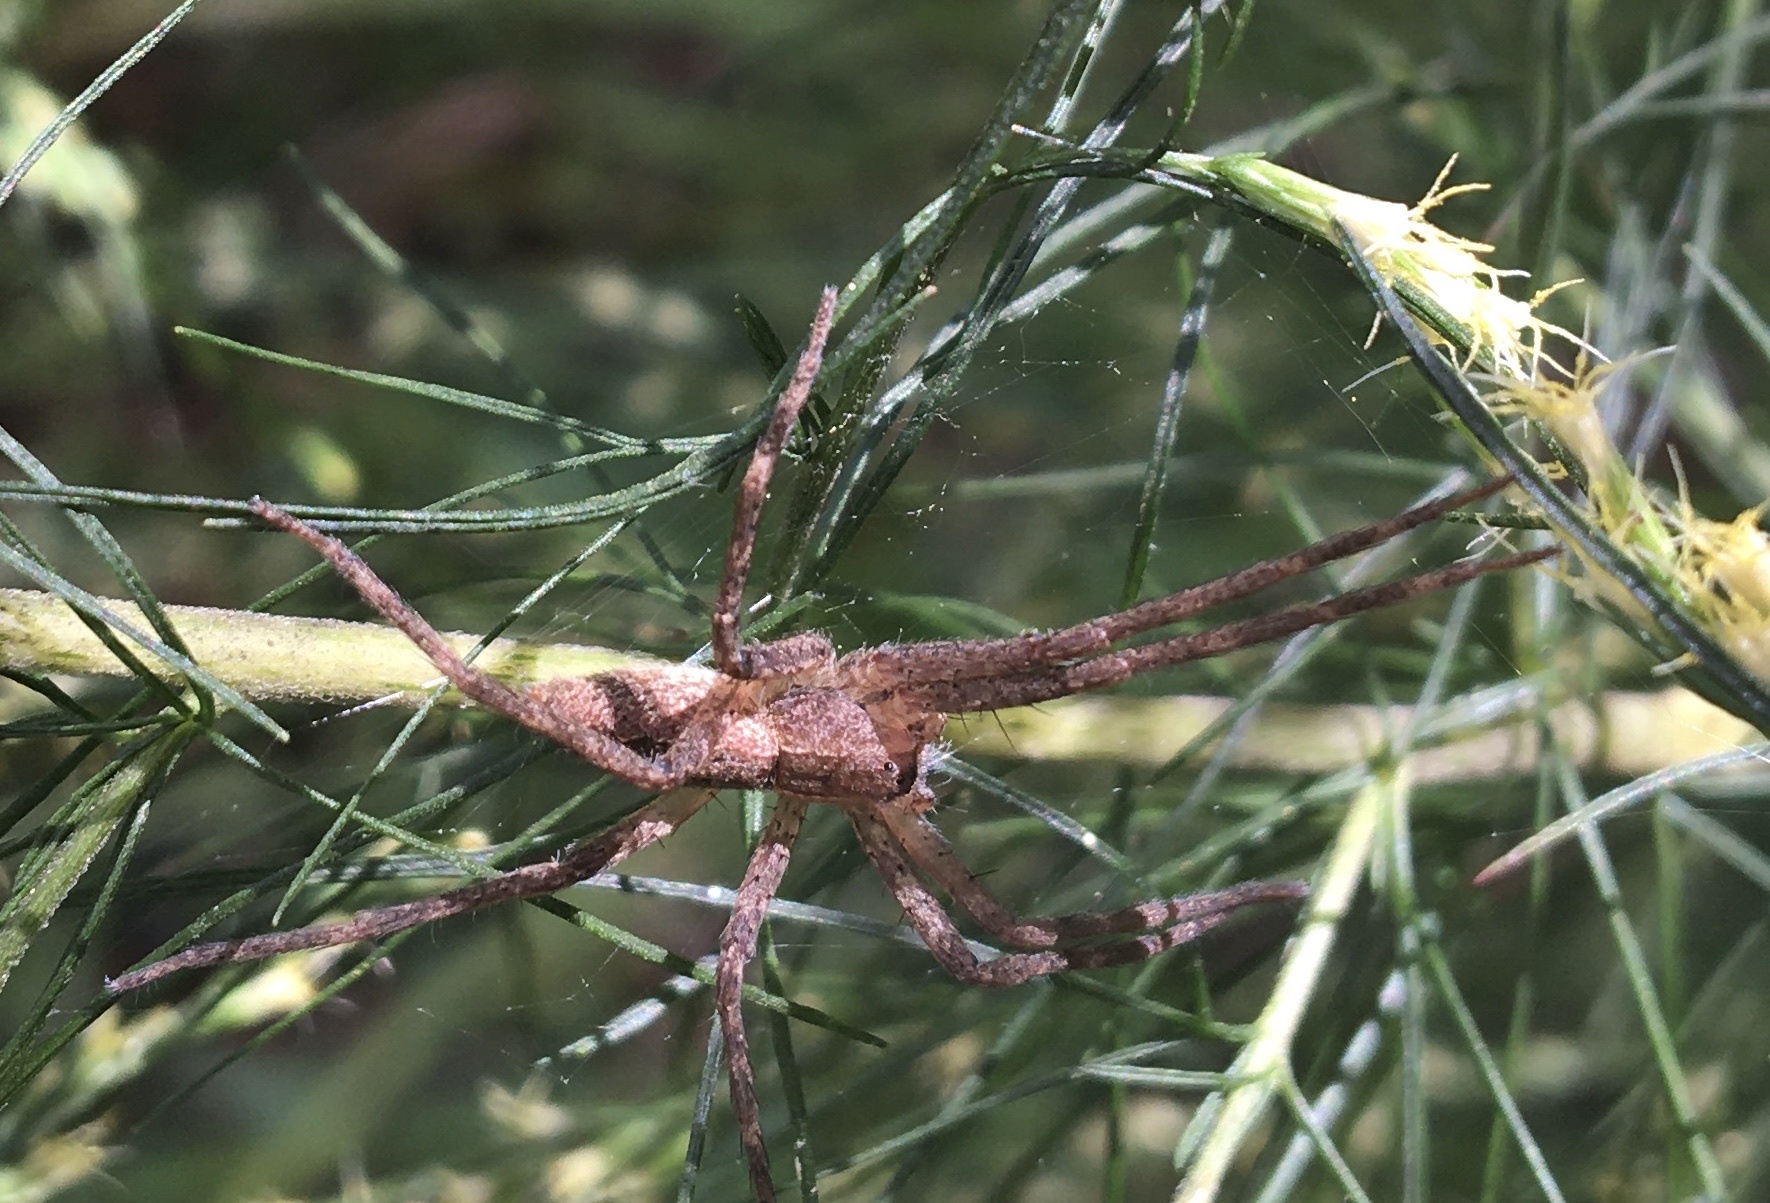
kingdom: Animalia
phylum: Arthropoda
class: Arachnida
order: Araneae
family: Pisauridae
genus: Pisaurina
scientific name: Pisaurina mira
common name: American nursery web spider
